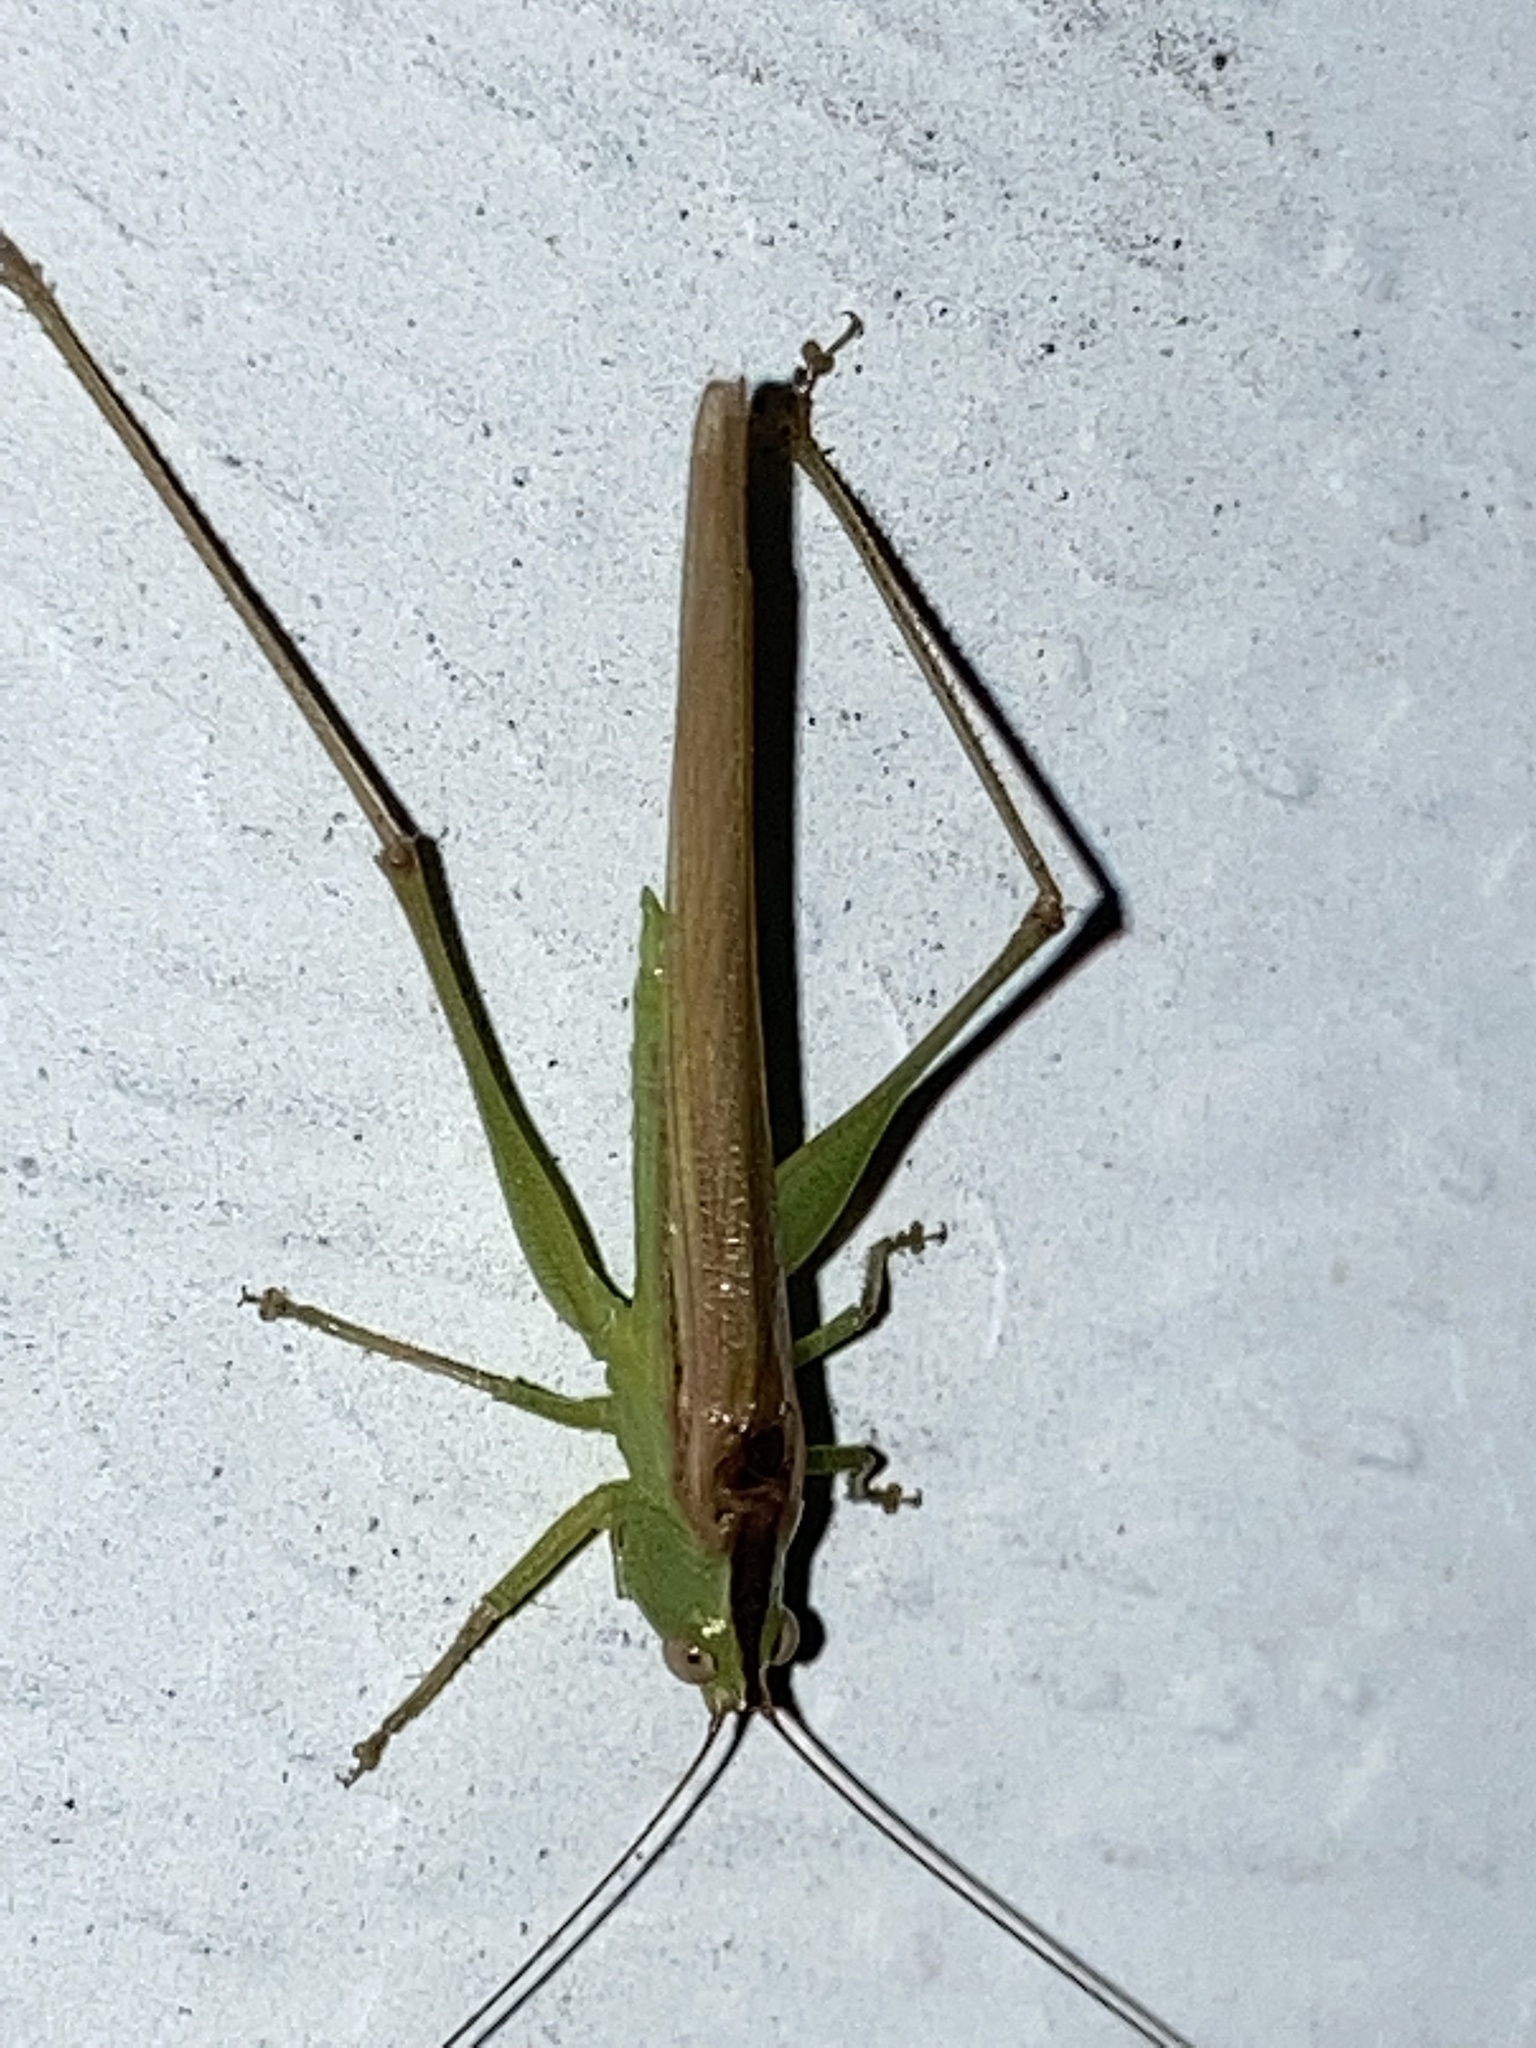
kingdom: Animalia
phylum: Arthropoda
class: Insecta
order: Orthoptera
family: Tettigoniidae
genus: Conocephalus
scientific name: Conocephalus fasciatus
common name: Slender meadow katydid
